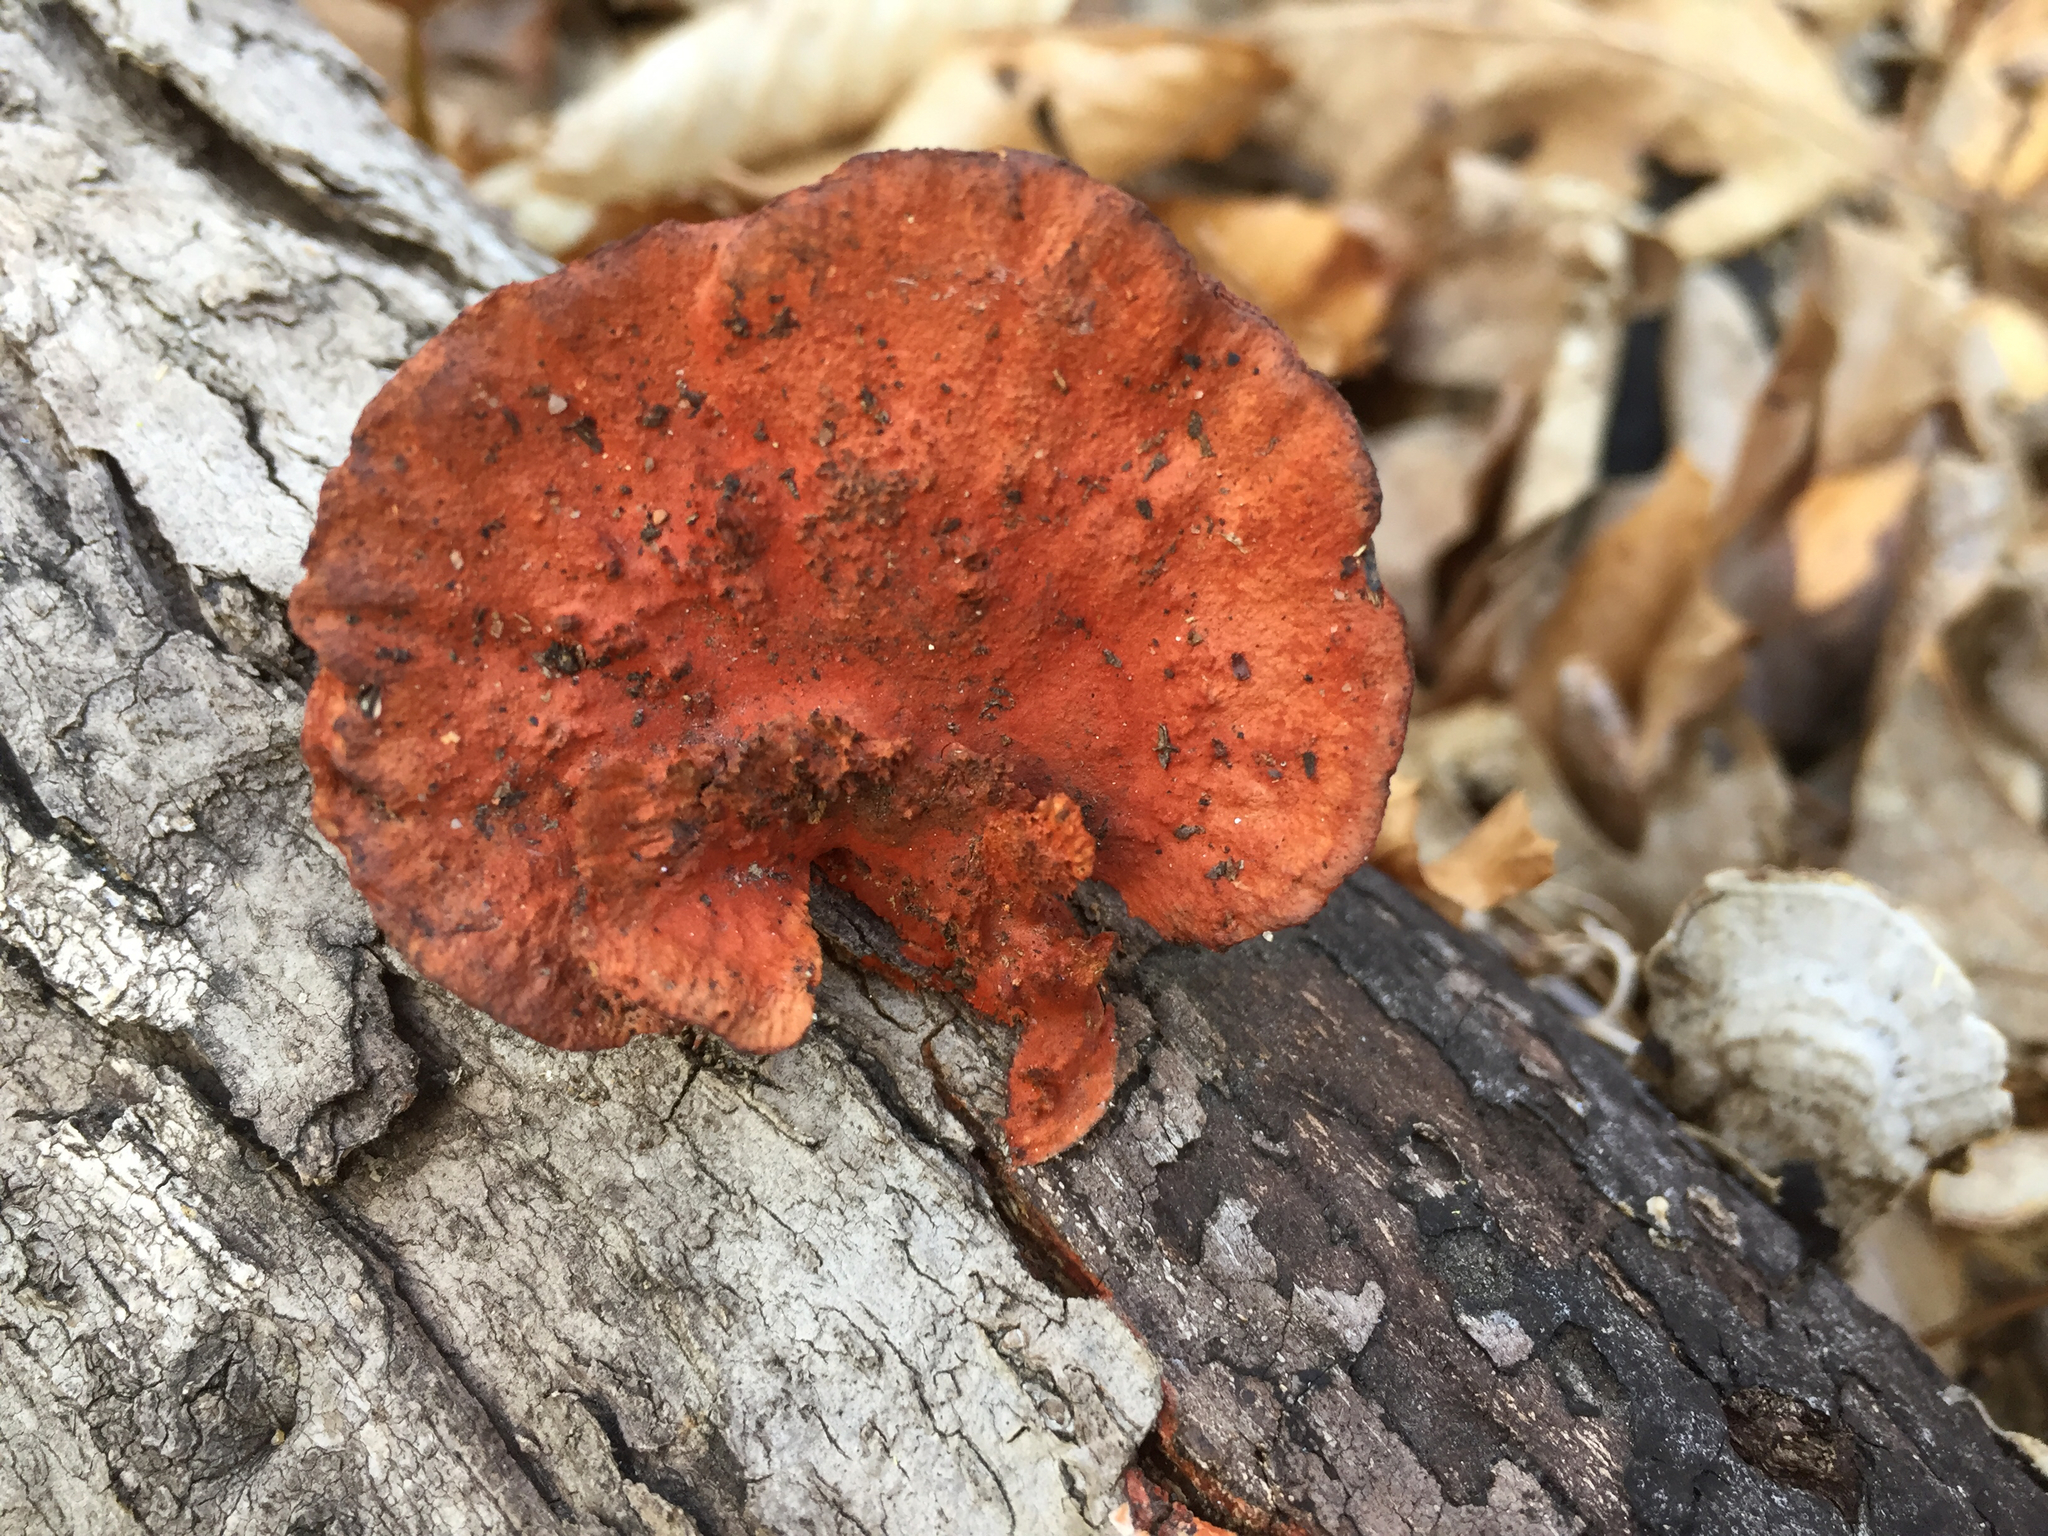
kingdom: Fungi
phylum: Basidiomycota
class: Agaricomycetes
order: Polyporales
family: Polyporaceae
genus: Trametes
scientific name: Trametes coccinea
